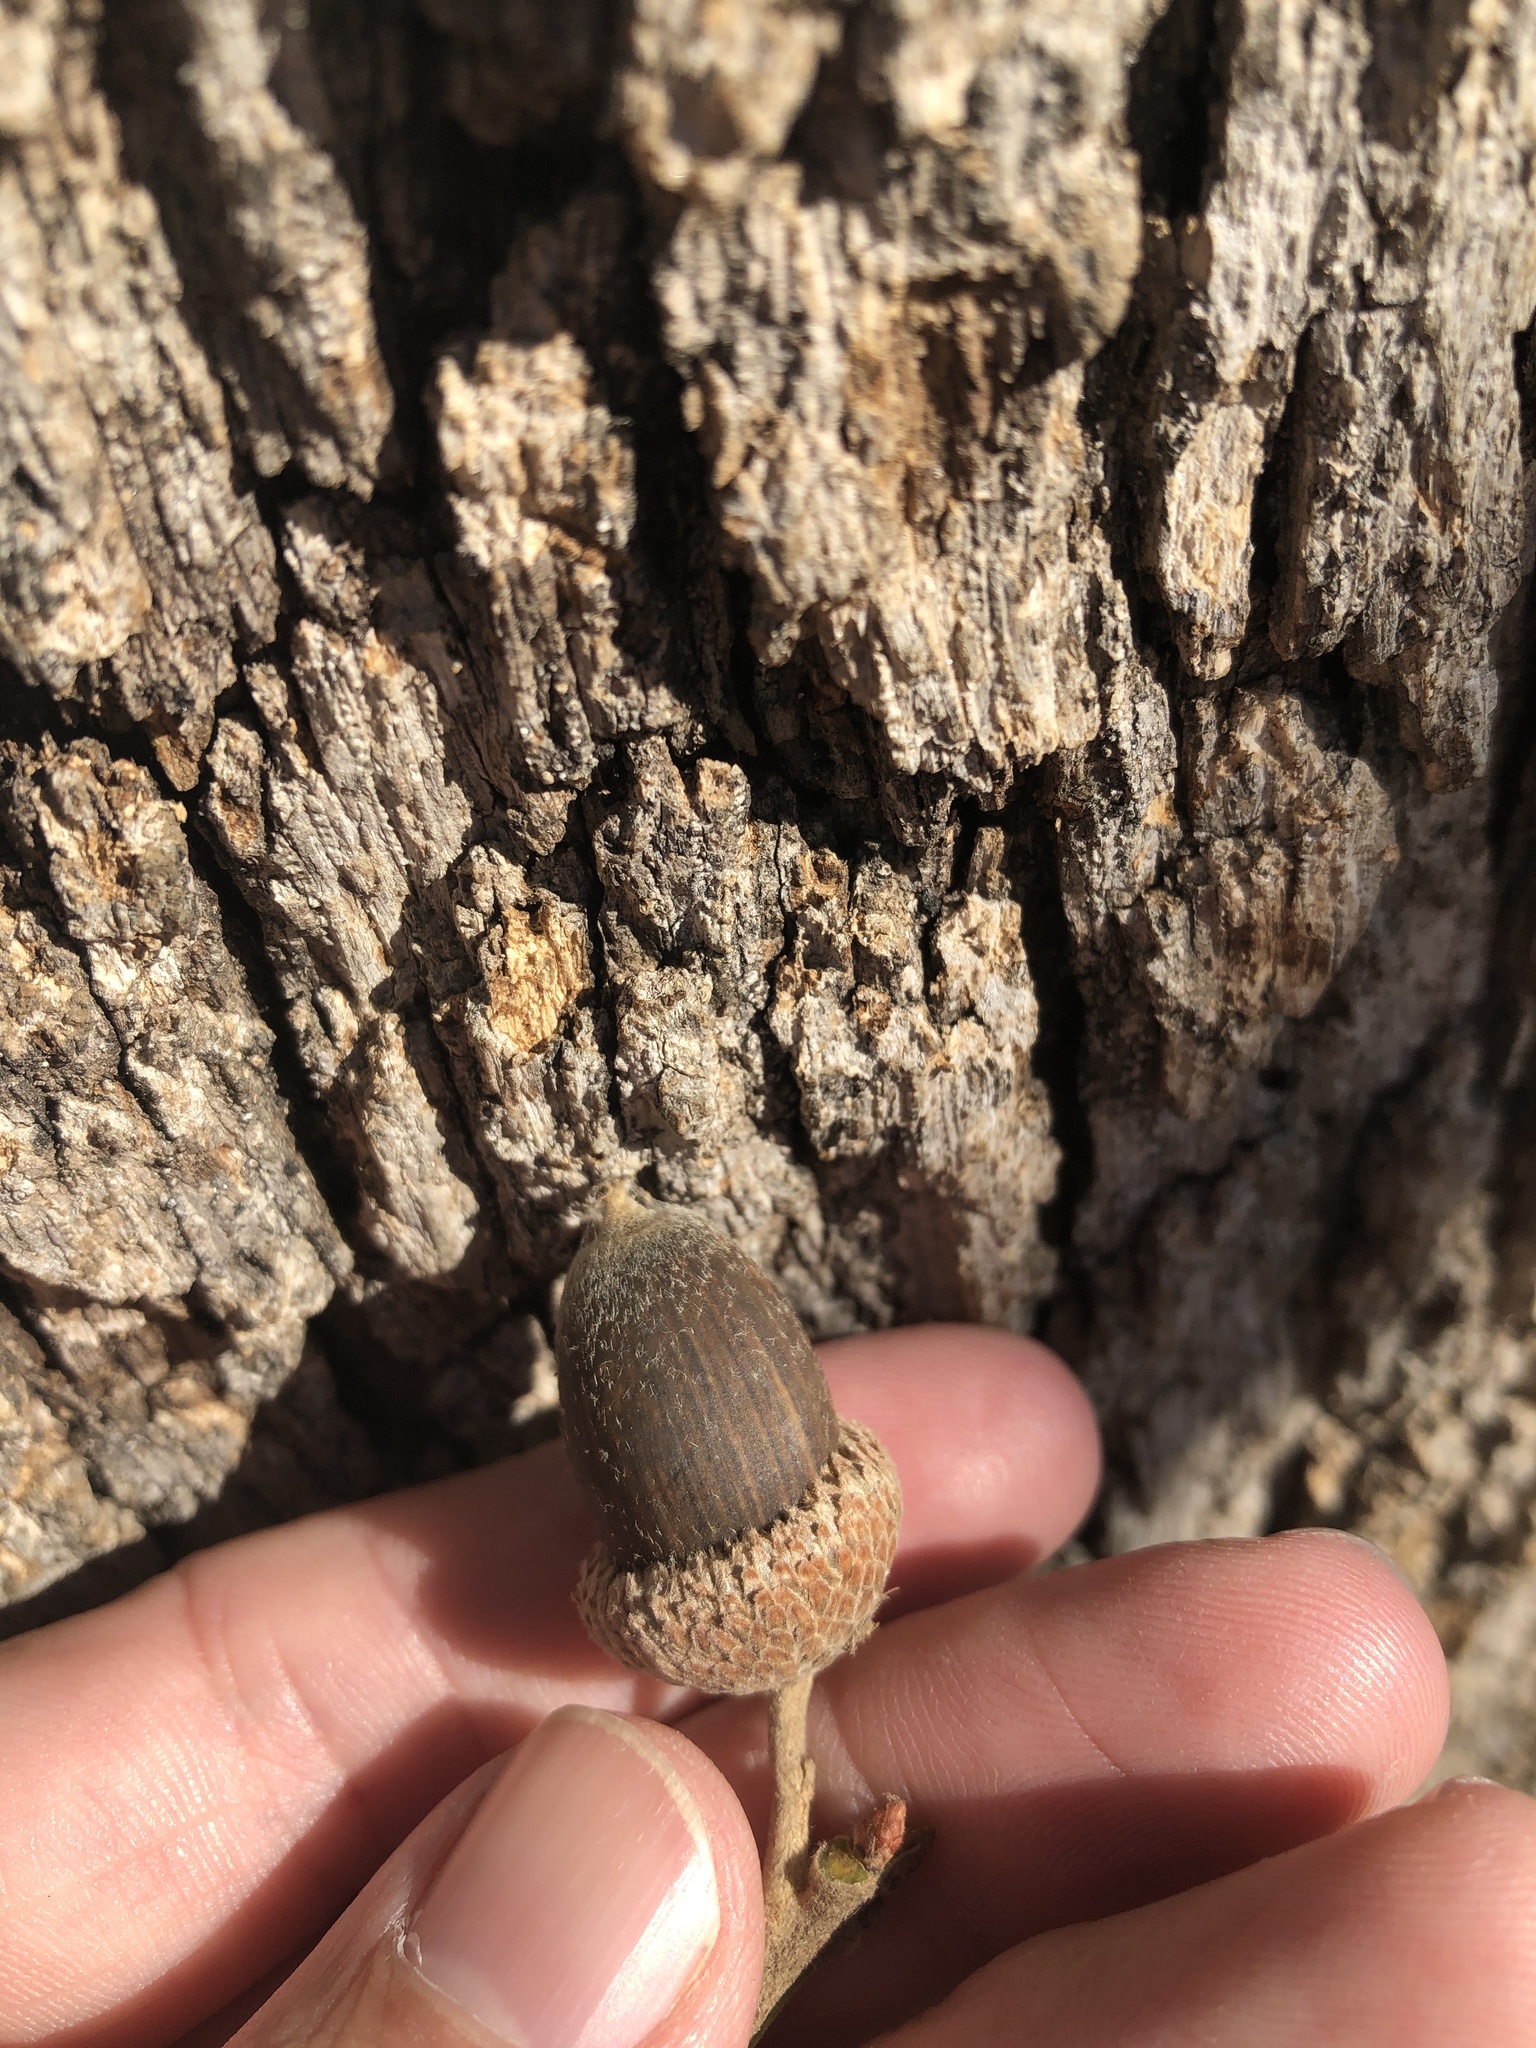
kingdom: Plantae
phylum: Tracheophyta
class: Magnoliopsida
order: Fagales
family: Fagaceae
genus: Quercus
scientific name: Quercus stellata
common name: Post oak
